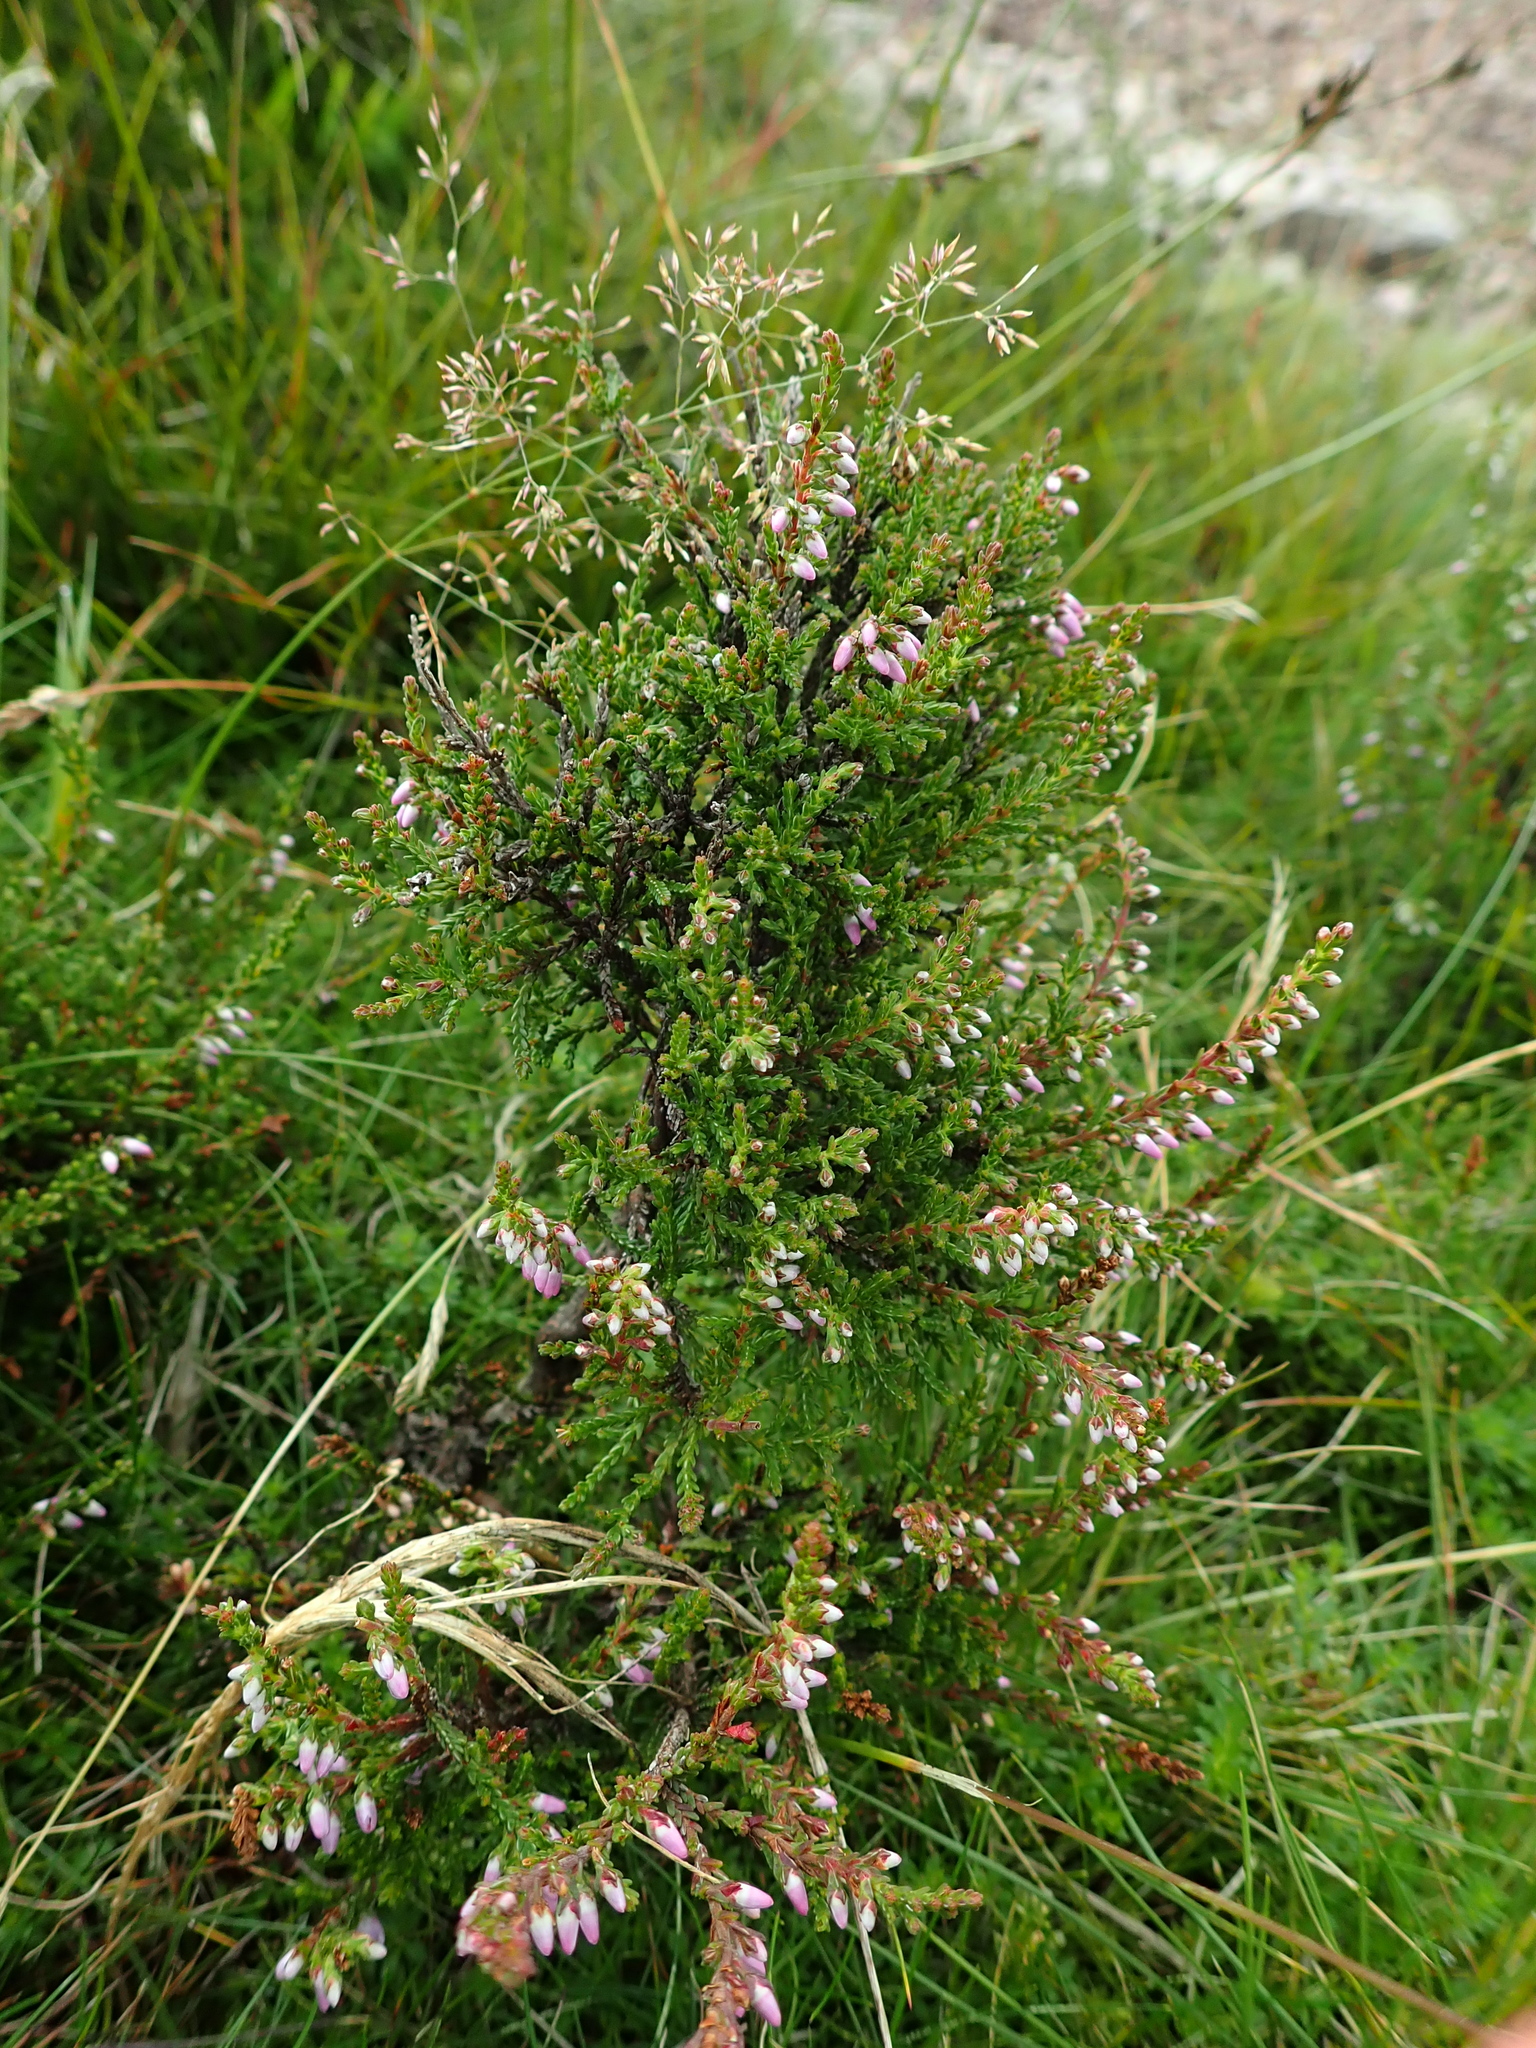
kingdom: Plantae
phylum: Tracheophyta
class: Magnoliopsida
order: Ericales
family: Ericaceae
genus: Calluna
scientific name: Calluna vulgaris
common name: Heather
